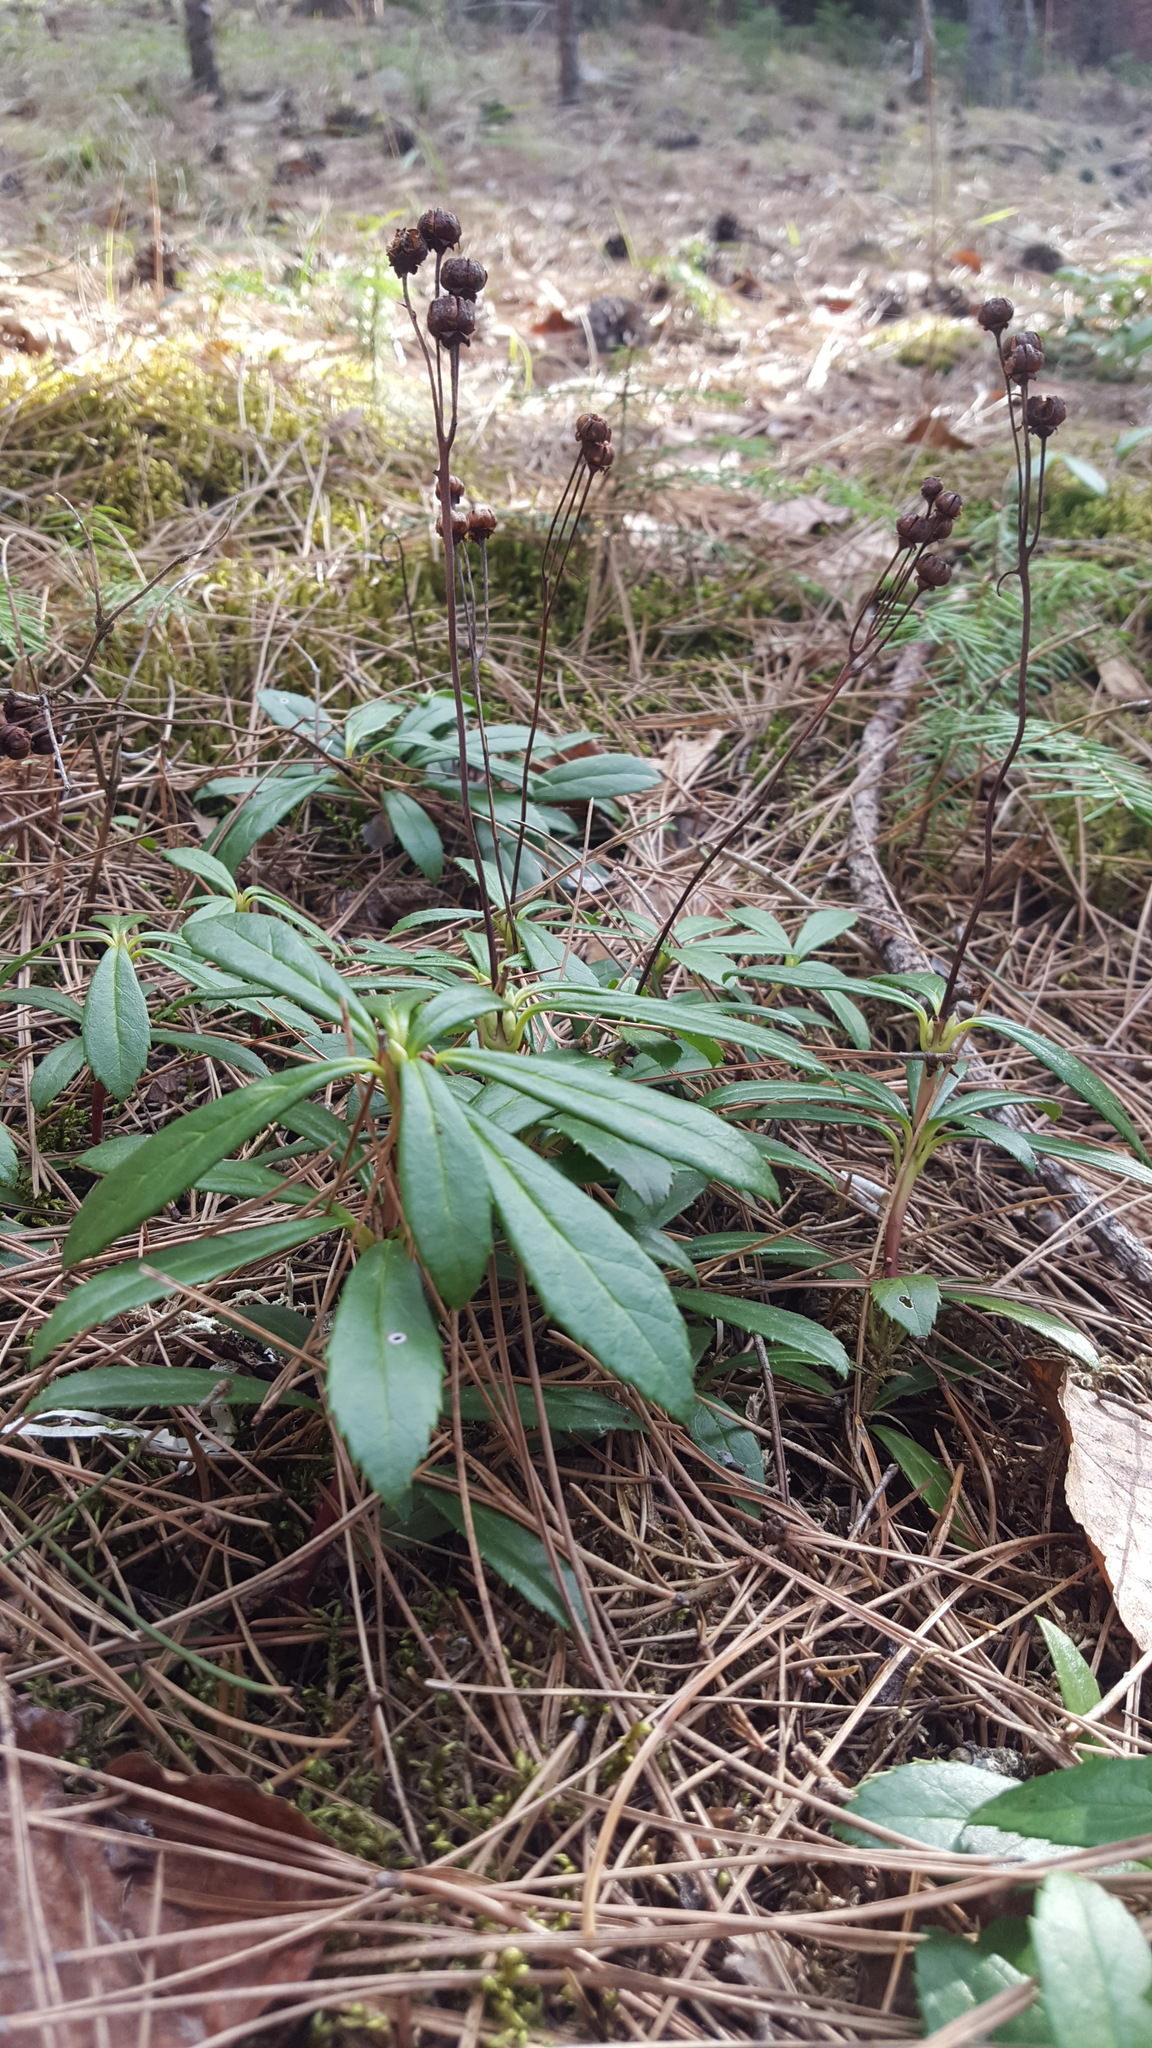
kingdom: Plantae
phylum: Tracheophyta
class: Magnoliopsida
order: Ericales
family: Ericaceae
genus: Chimaphila
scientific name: Chimaphila umbellata
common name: Pipsissewa
